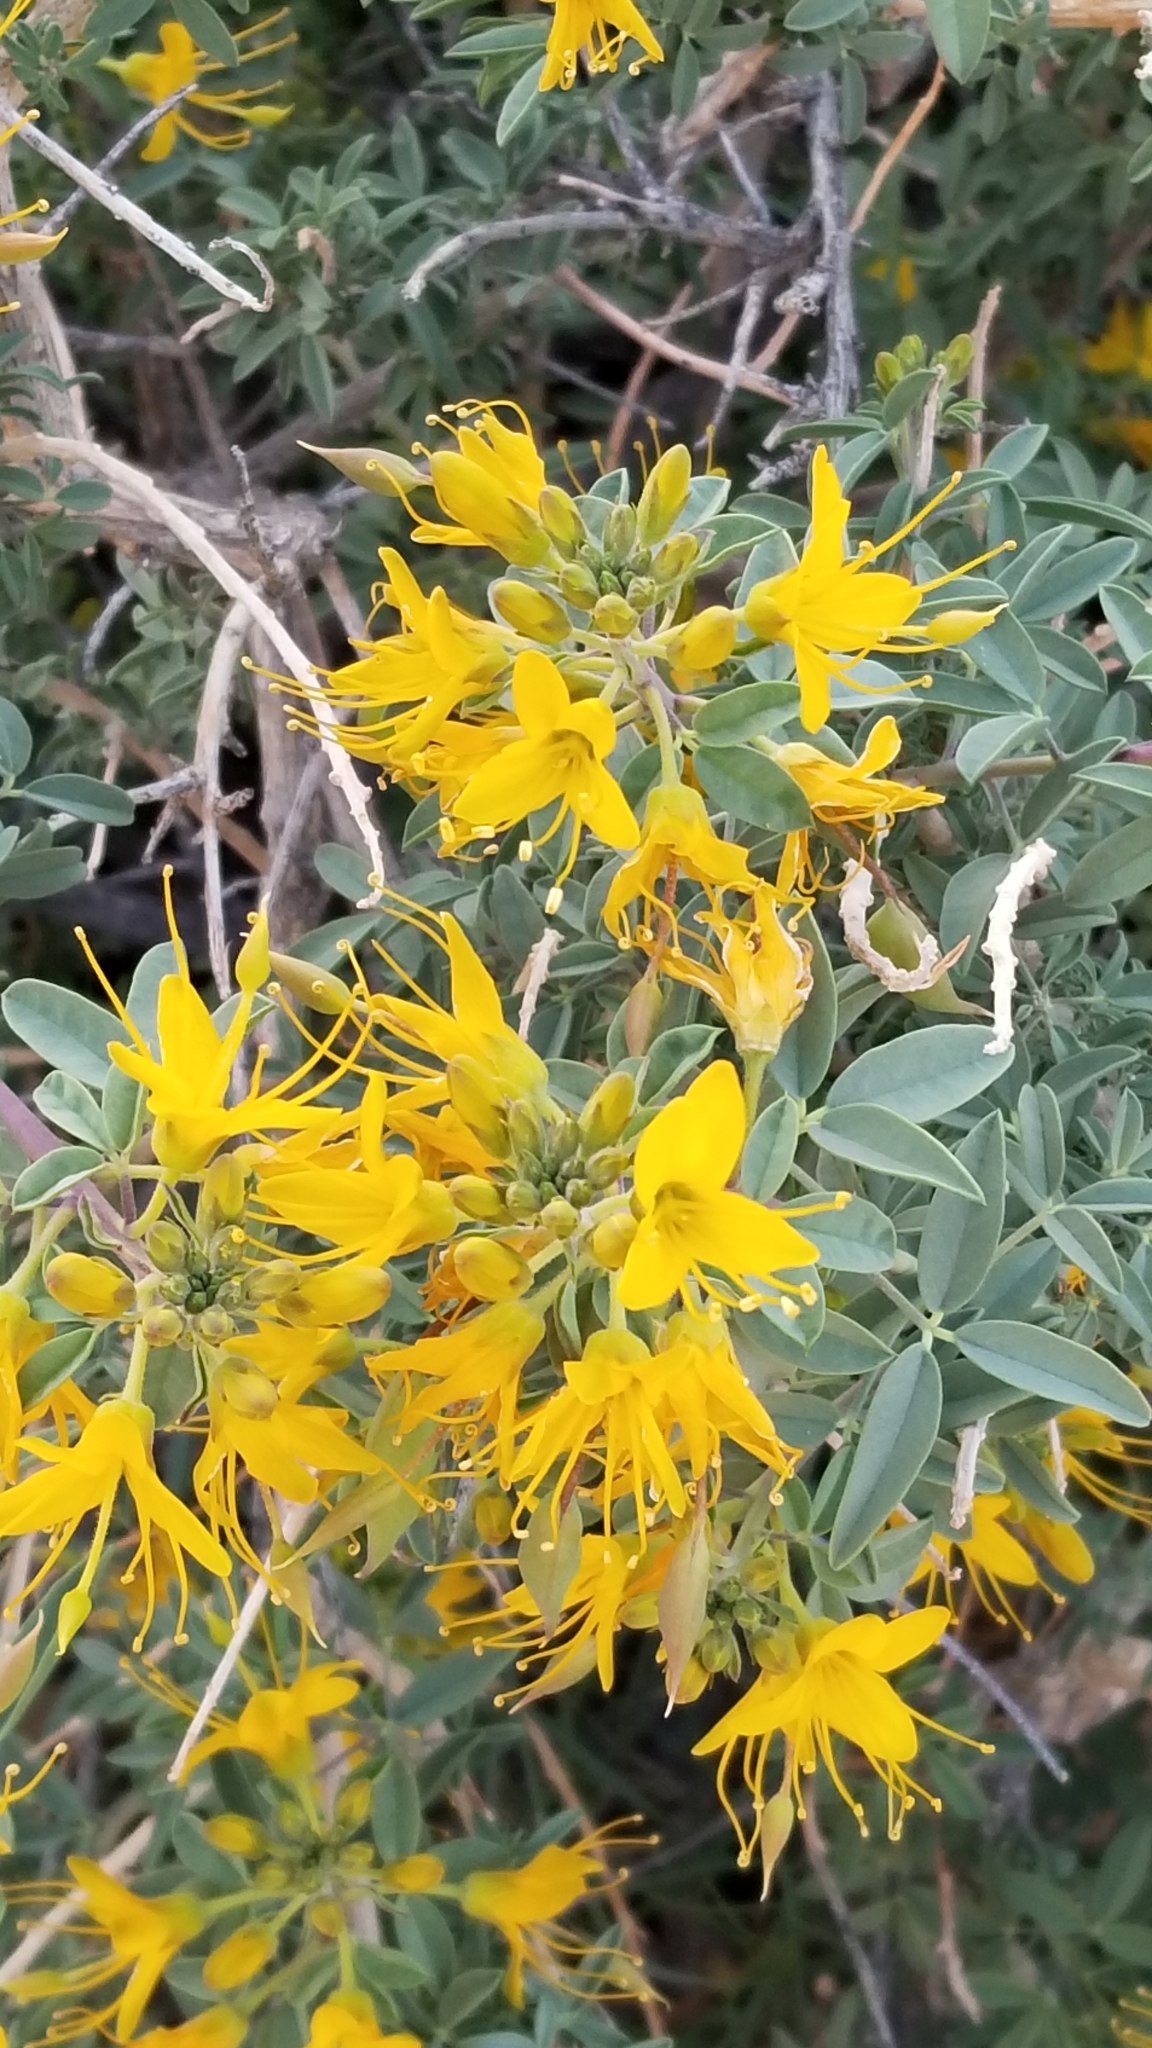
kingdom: Plantae
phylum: Tracheophyta
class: Magnoliopsida
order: Brassicales
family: Cleomaceae
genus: Cleomella
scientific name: Cleomella arborea
